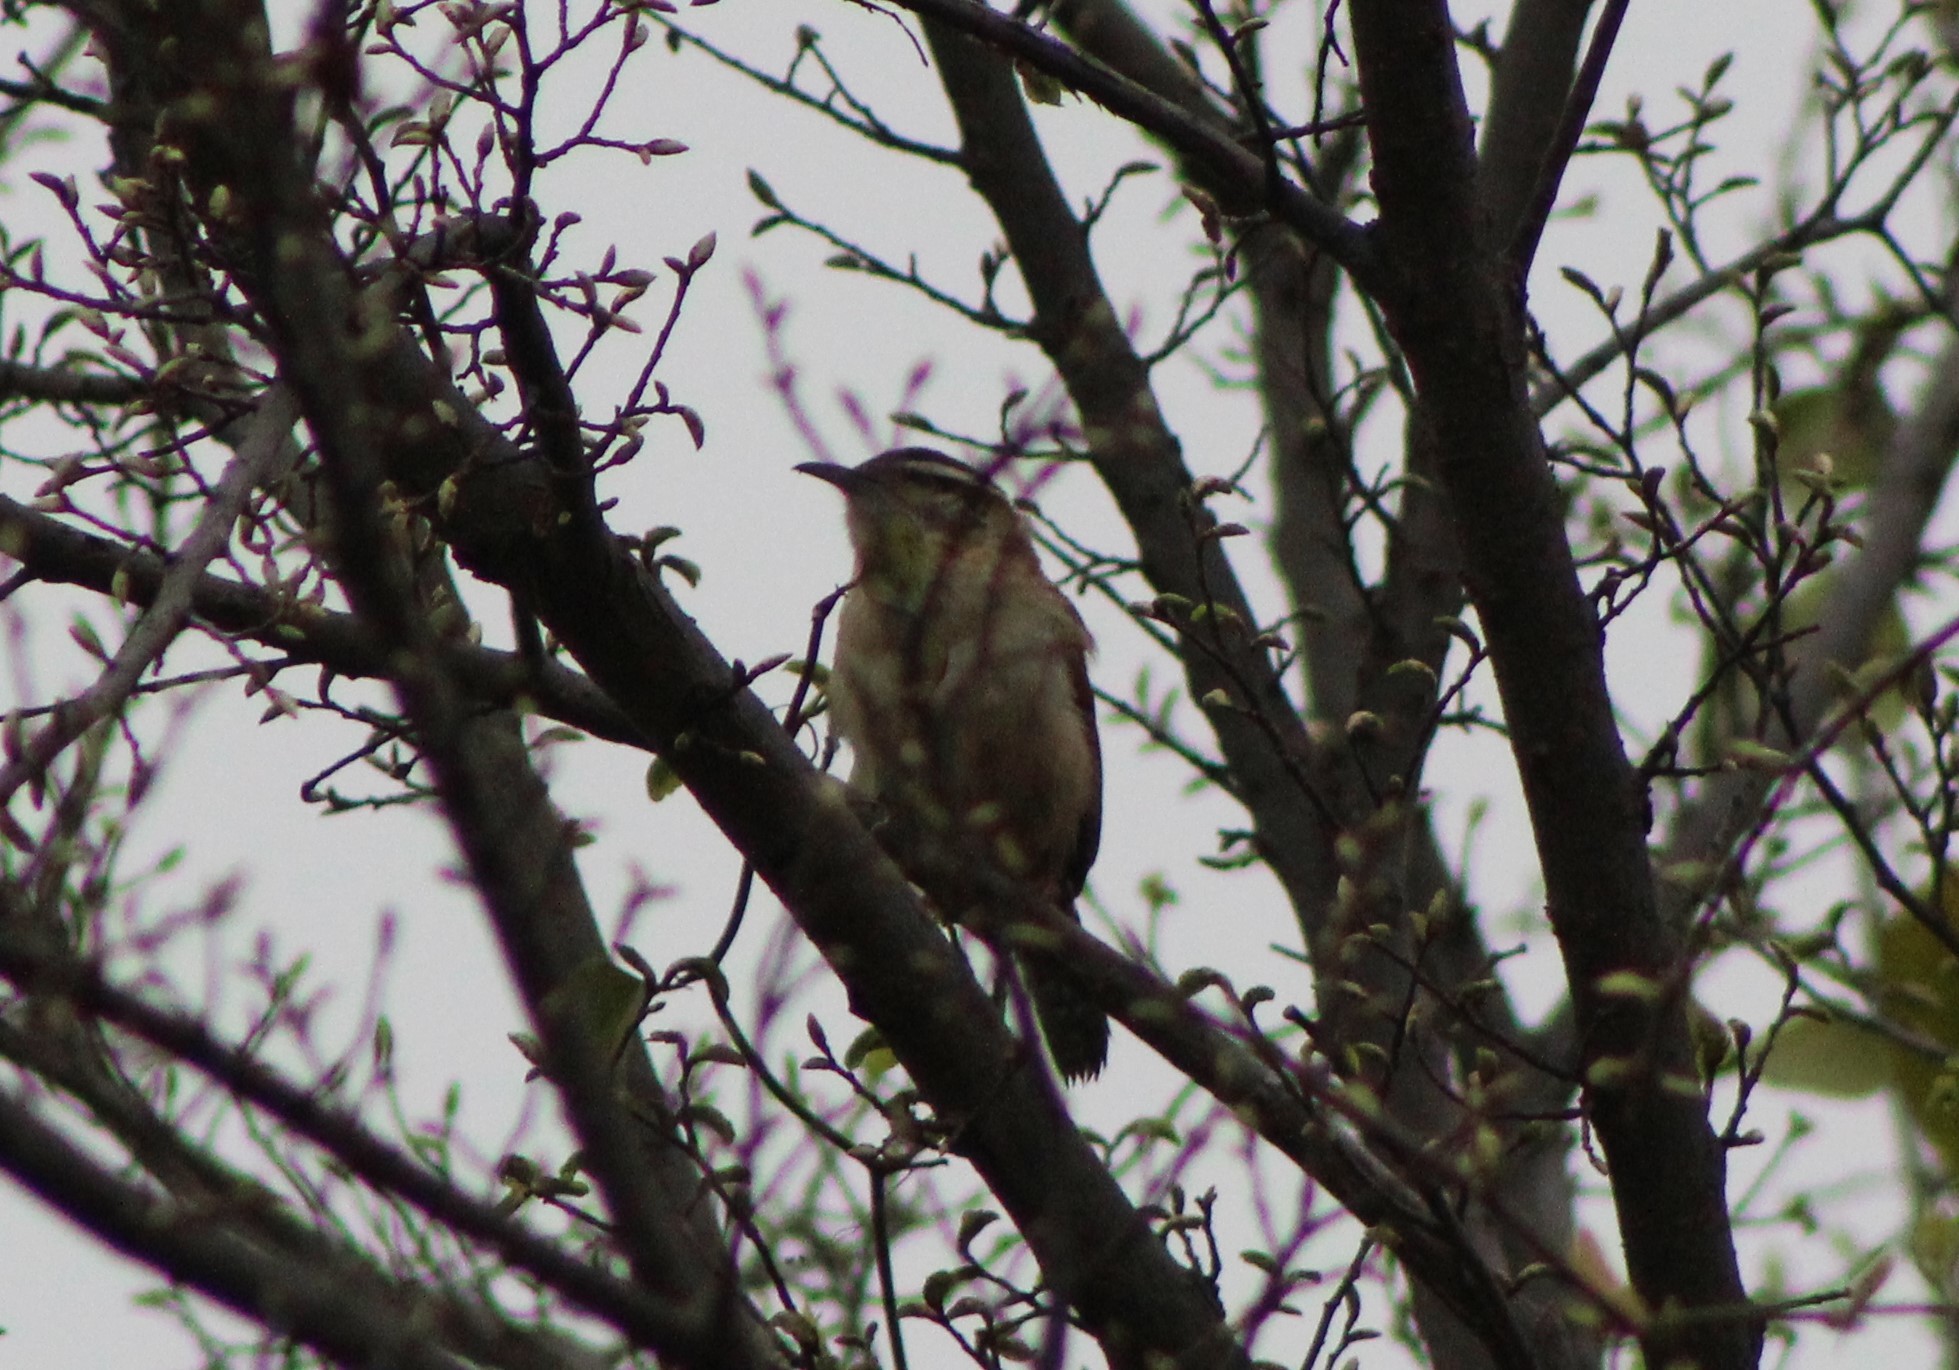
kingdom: Animalia
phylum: Chordata
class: Aves
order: Passeriformes
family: Troglodytidae
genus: Thryothorus
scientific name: Thryothorus ludovicianus
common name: Carolina wren
